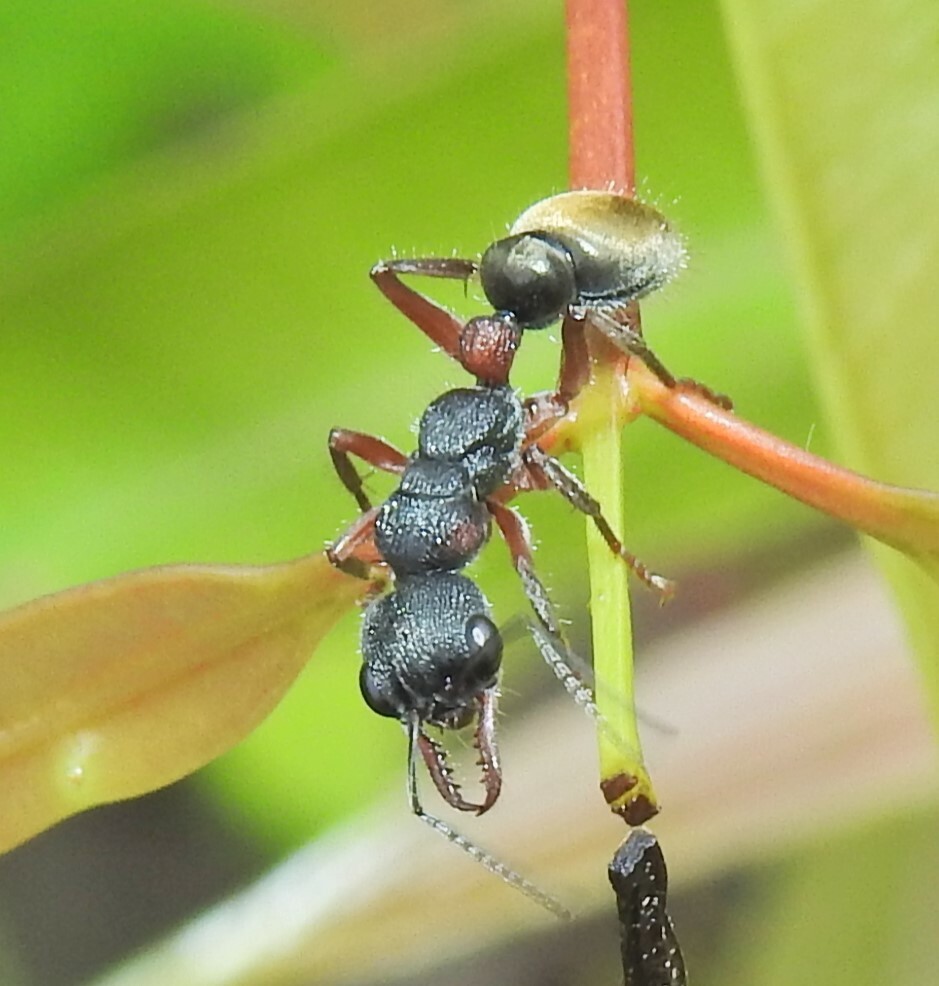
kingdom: Animalia
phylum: Arthropoda
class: Insecta
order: Hymenoptera
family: Formicidae
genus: Myrmecia
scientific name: Myrmecia chrysogaster
